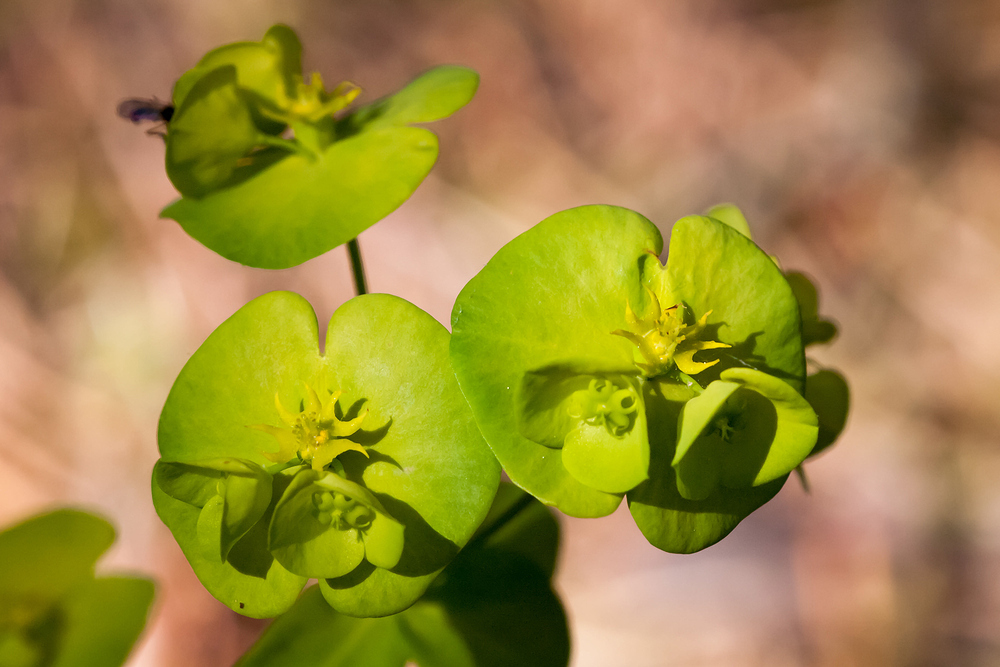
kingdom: Plantae
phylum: Tracheophyta
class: Magnoliopsida
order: Malpighiales
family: Euphorbiaceae
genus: Euphorbia
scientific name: Euphorbia amygdaloides
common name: Wood spurge
